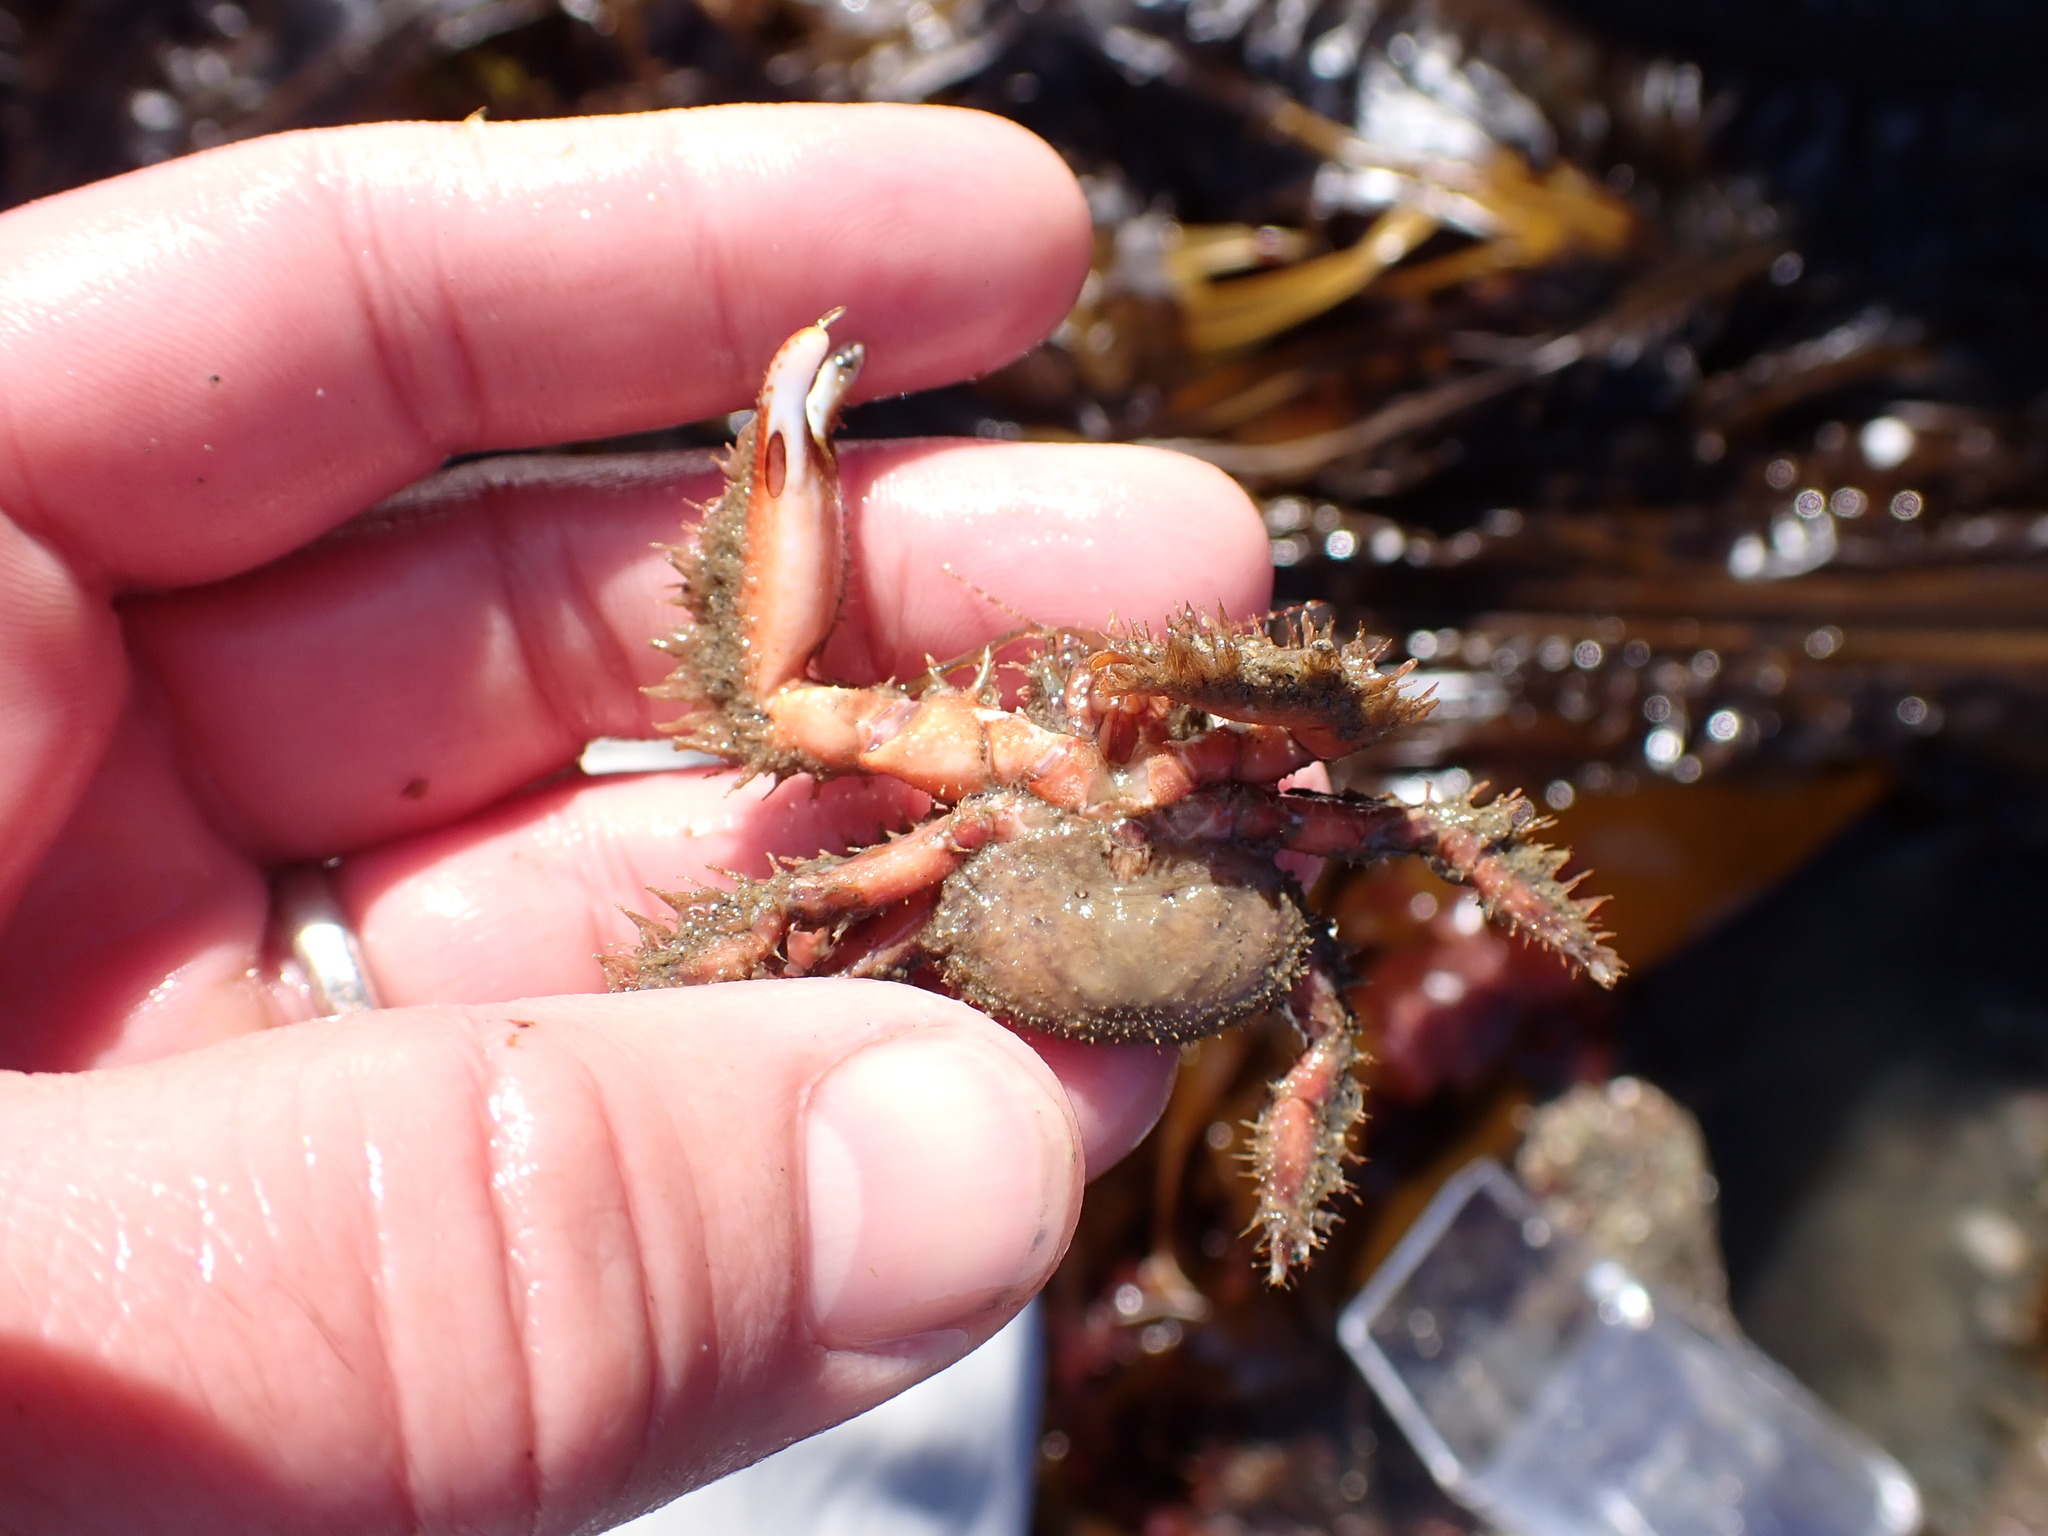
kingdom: Animalia
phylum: Arthropoda
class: Malacostraca
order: Decapoda
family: Hapalogastridae
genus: Hapalogaster
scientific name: Hapalogaster mertensii
